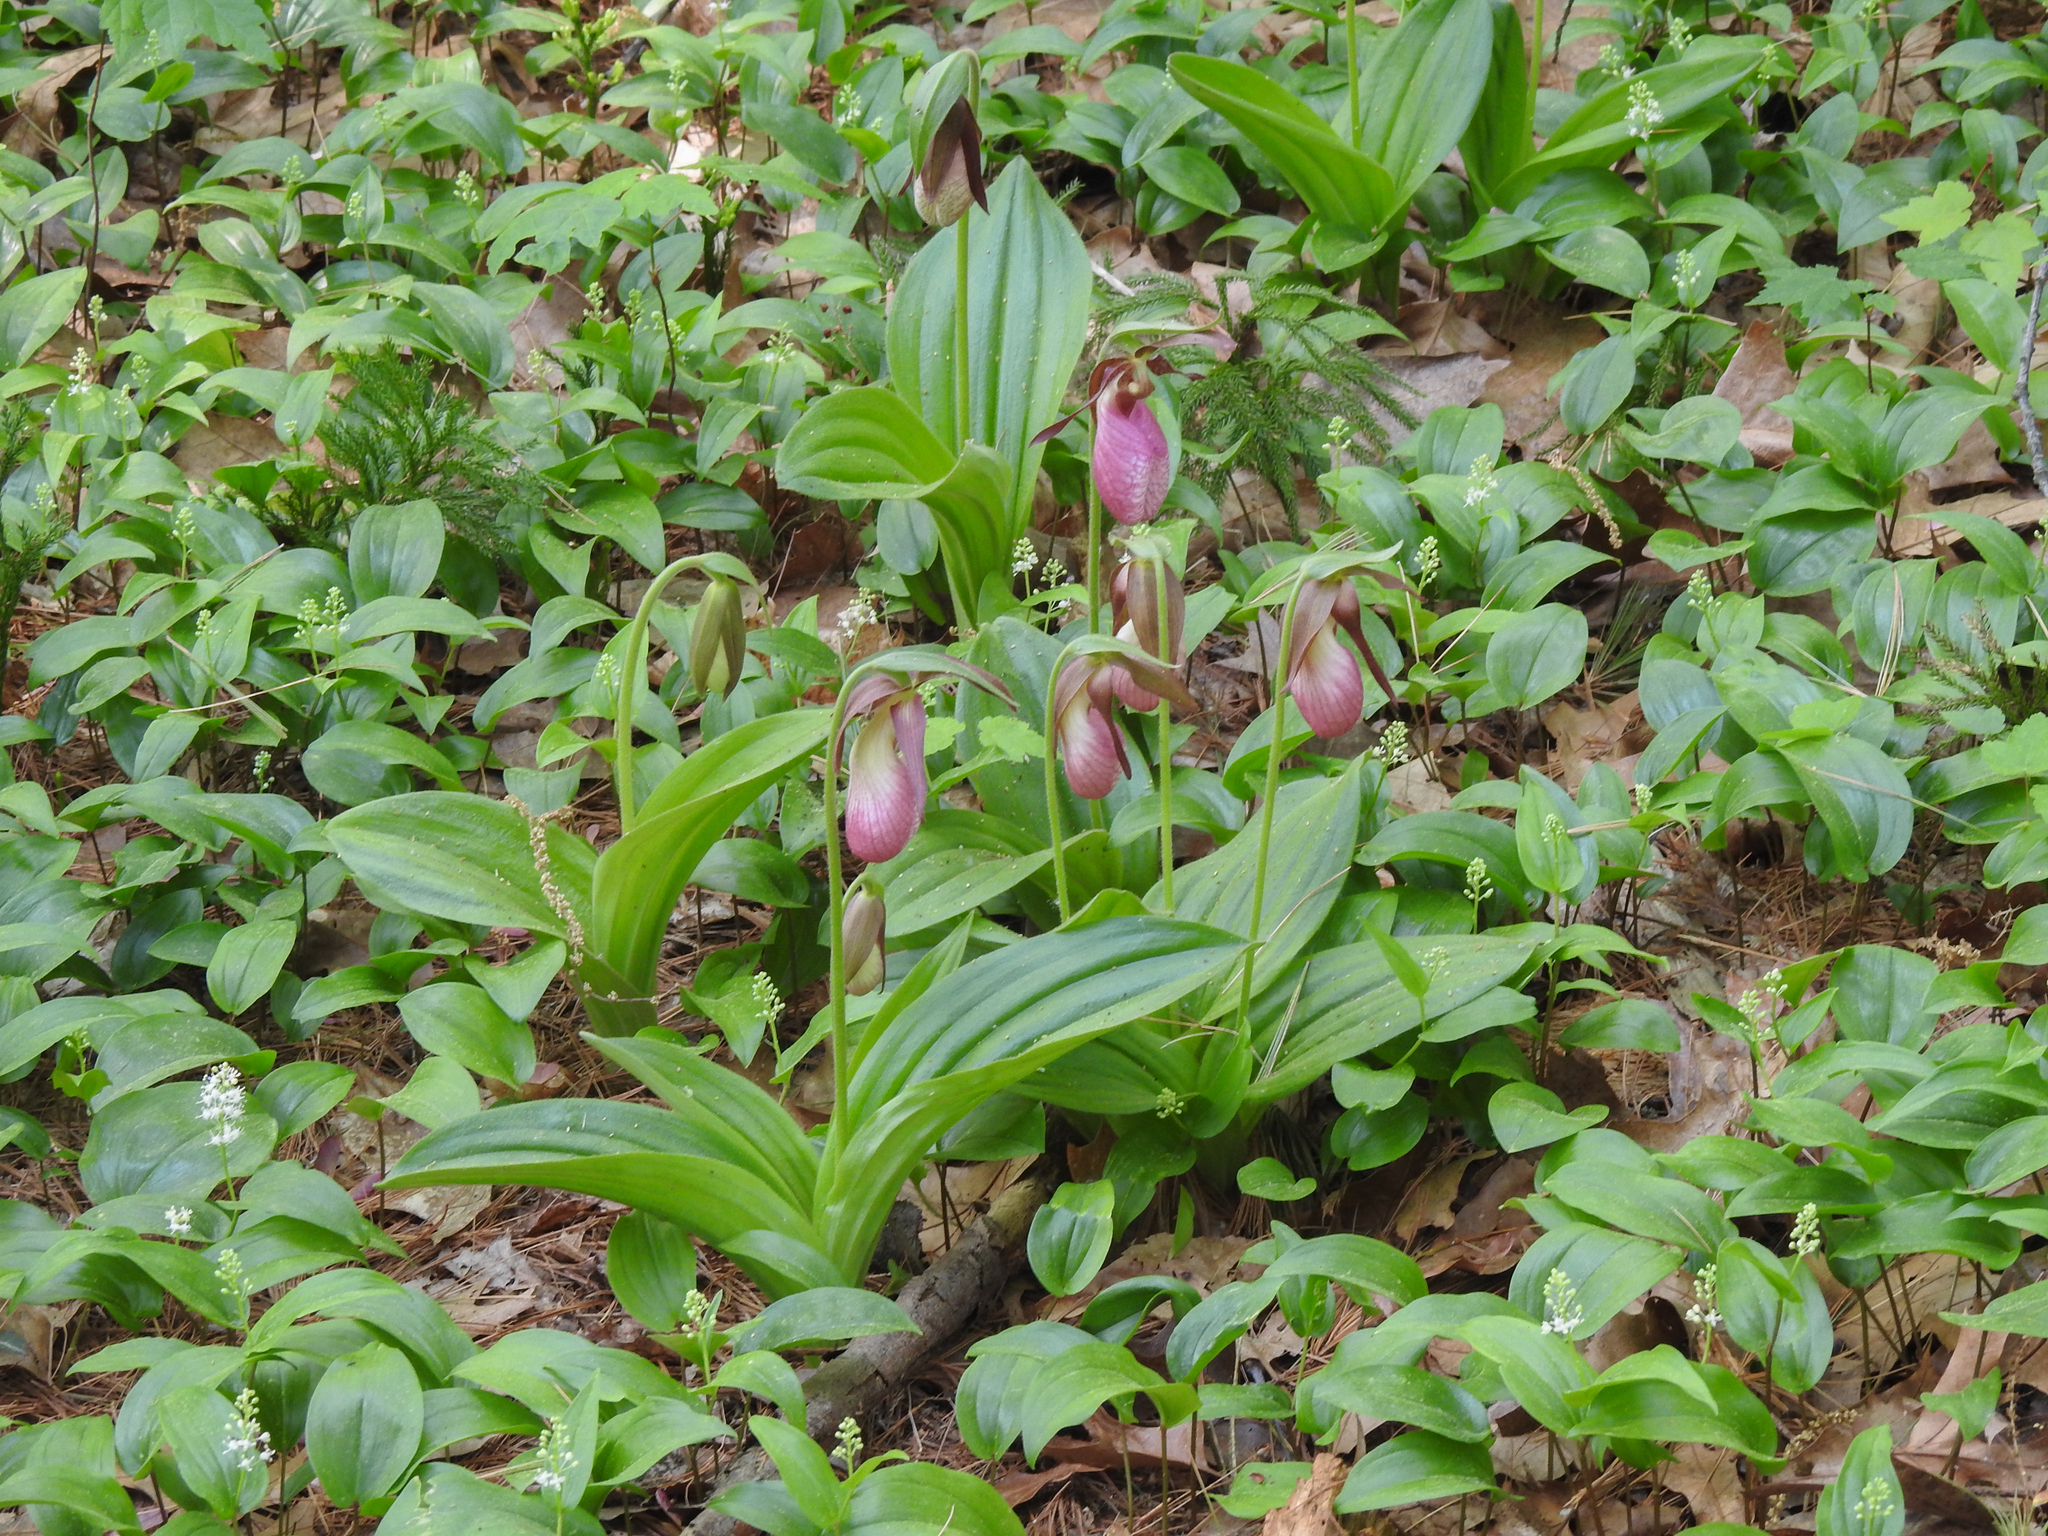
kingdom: Plantae
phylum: Tracheophyta
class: Liliopsida
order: Asparagales
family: Orchidaceae
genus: Cypripedium
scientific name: Cypripedium acaule
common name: Pink lady's-slipper
